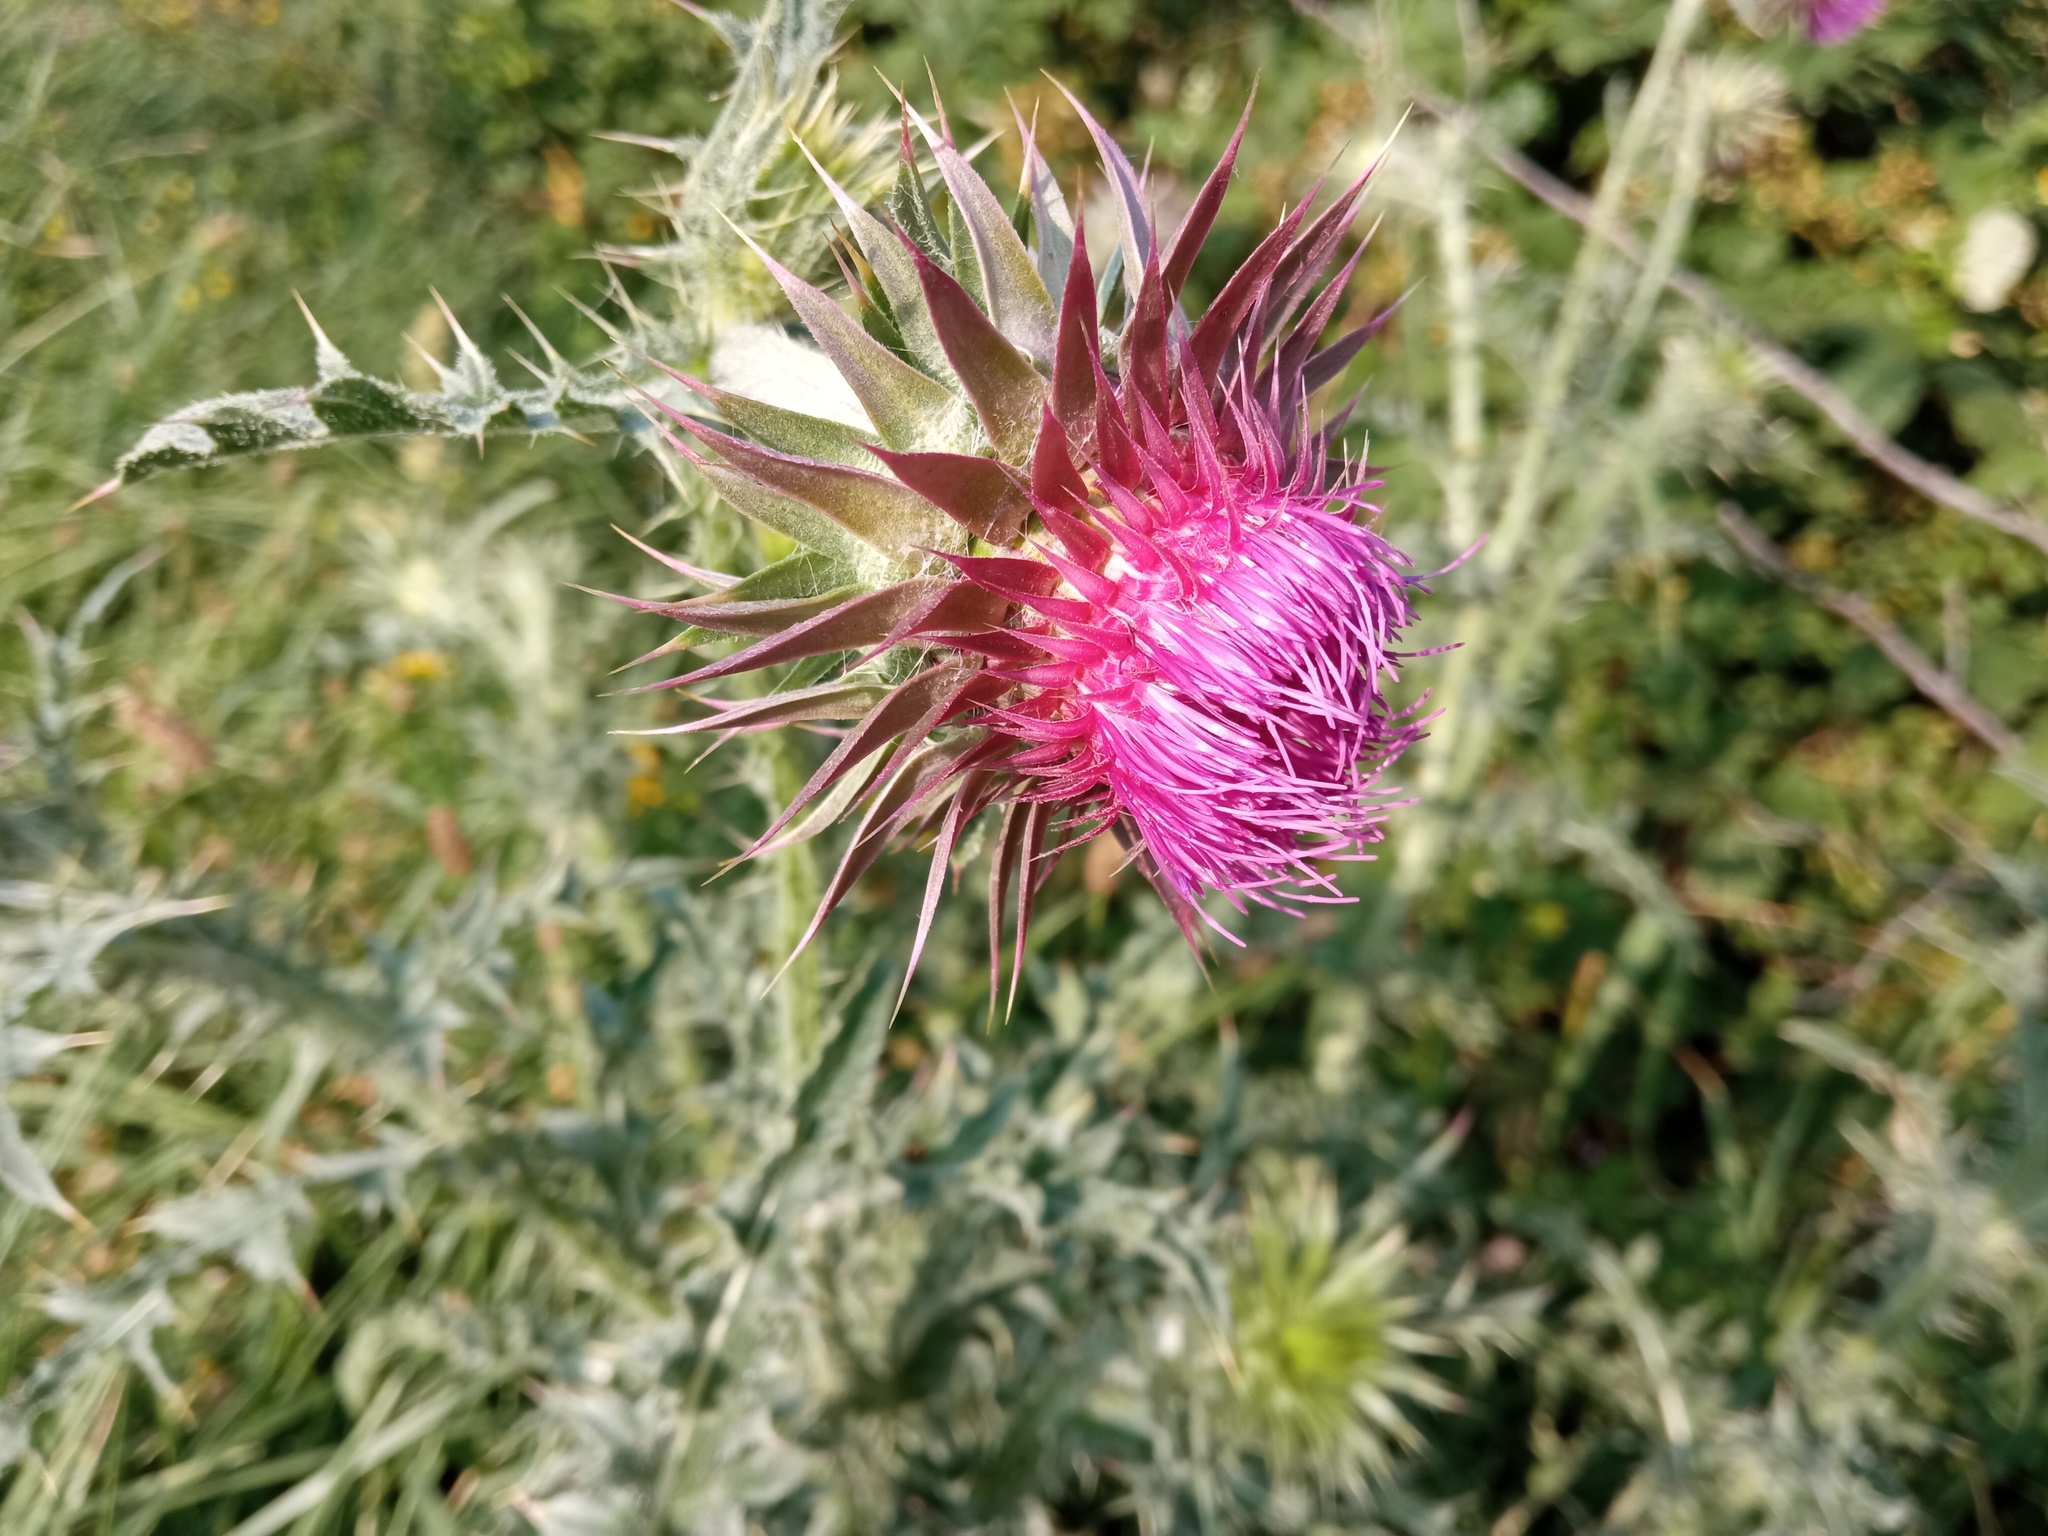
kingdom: Plantae
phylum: Tracheophyta
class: Magnoliopsida
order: Asterales
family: Asteraceae
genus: Carduus
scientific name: Carduus nutans
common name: Musk thistle
